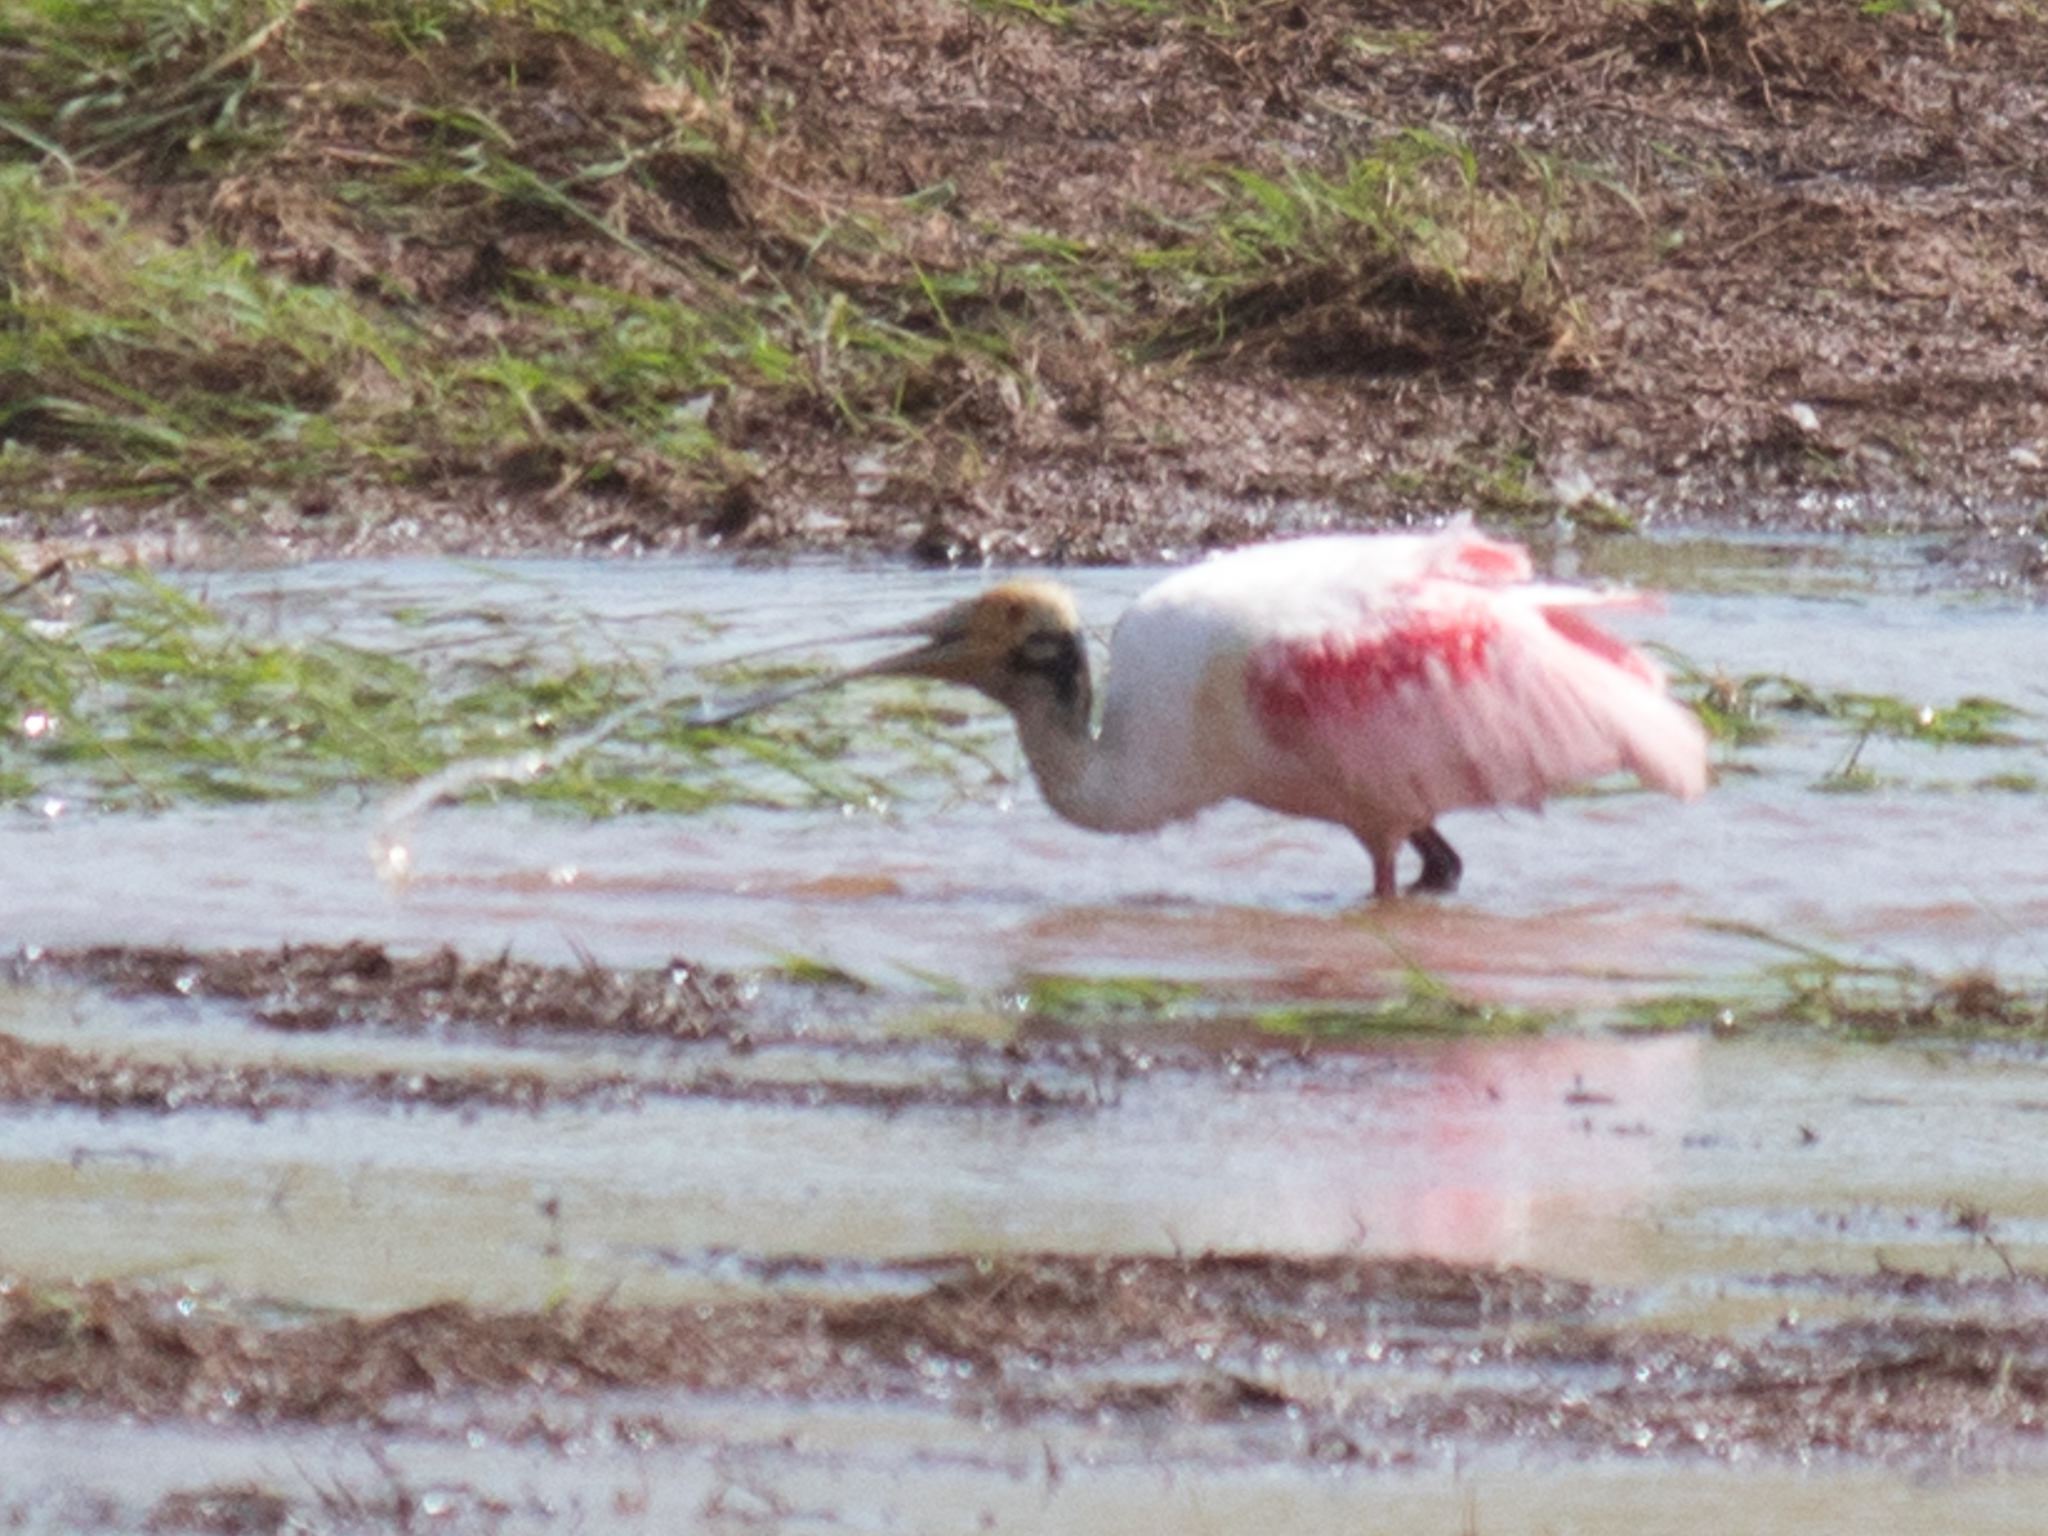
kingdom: Animalia
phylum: Chordata
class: Aves
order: Pelecaniformes
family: Threskiornithidae
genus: Platalea
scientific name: Platalea ajaja
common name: Roseate spoonbill
